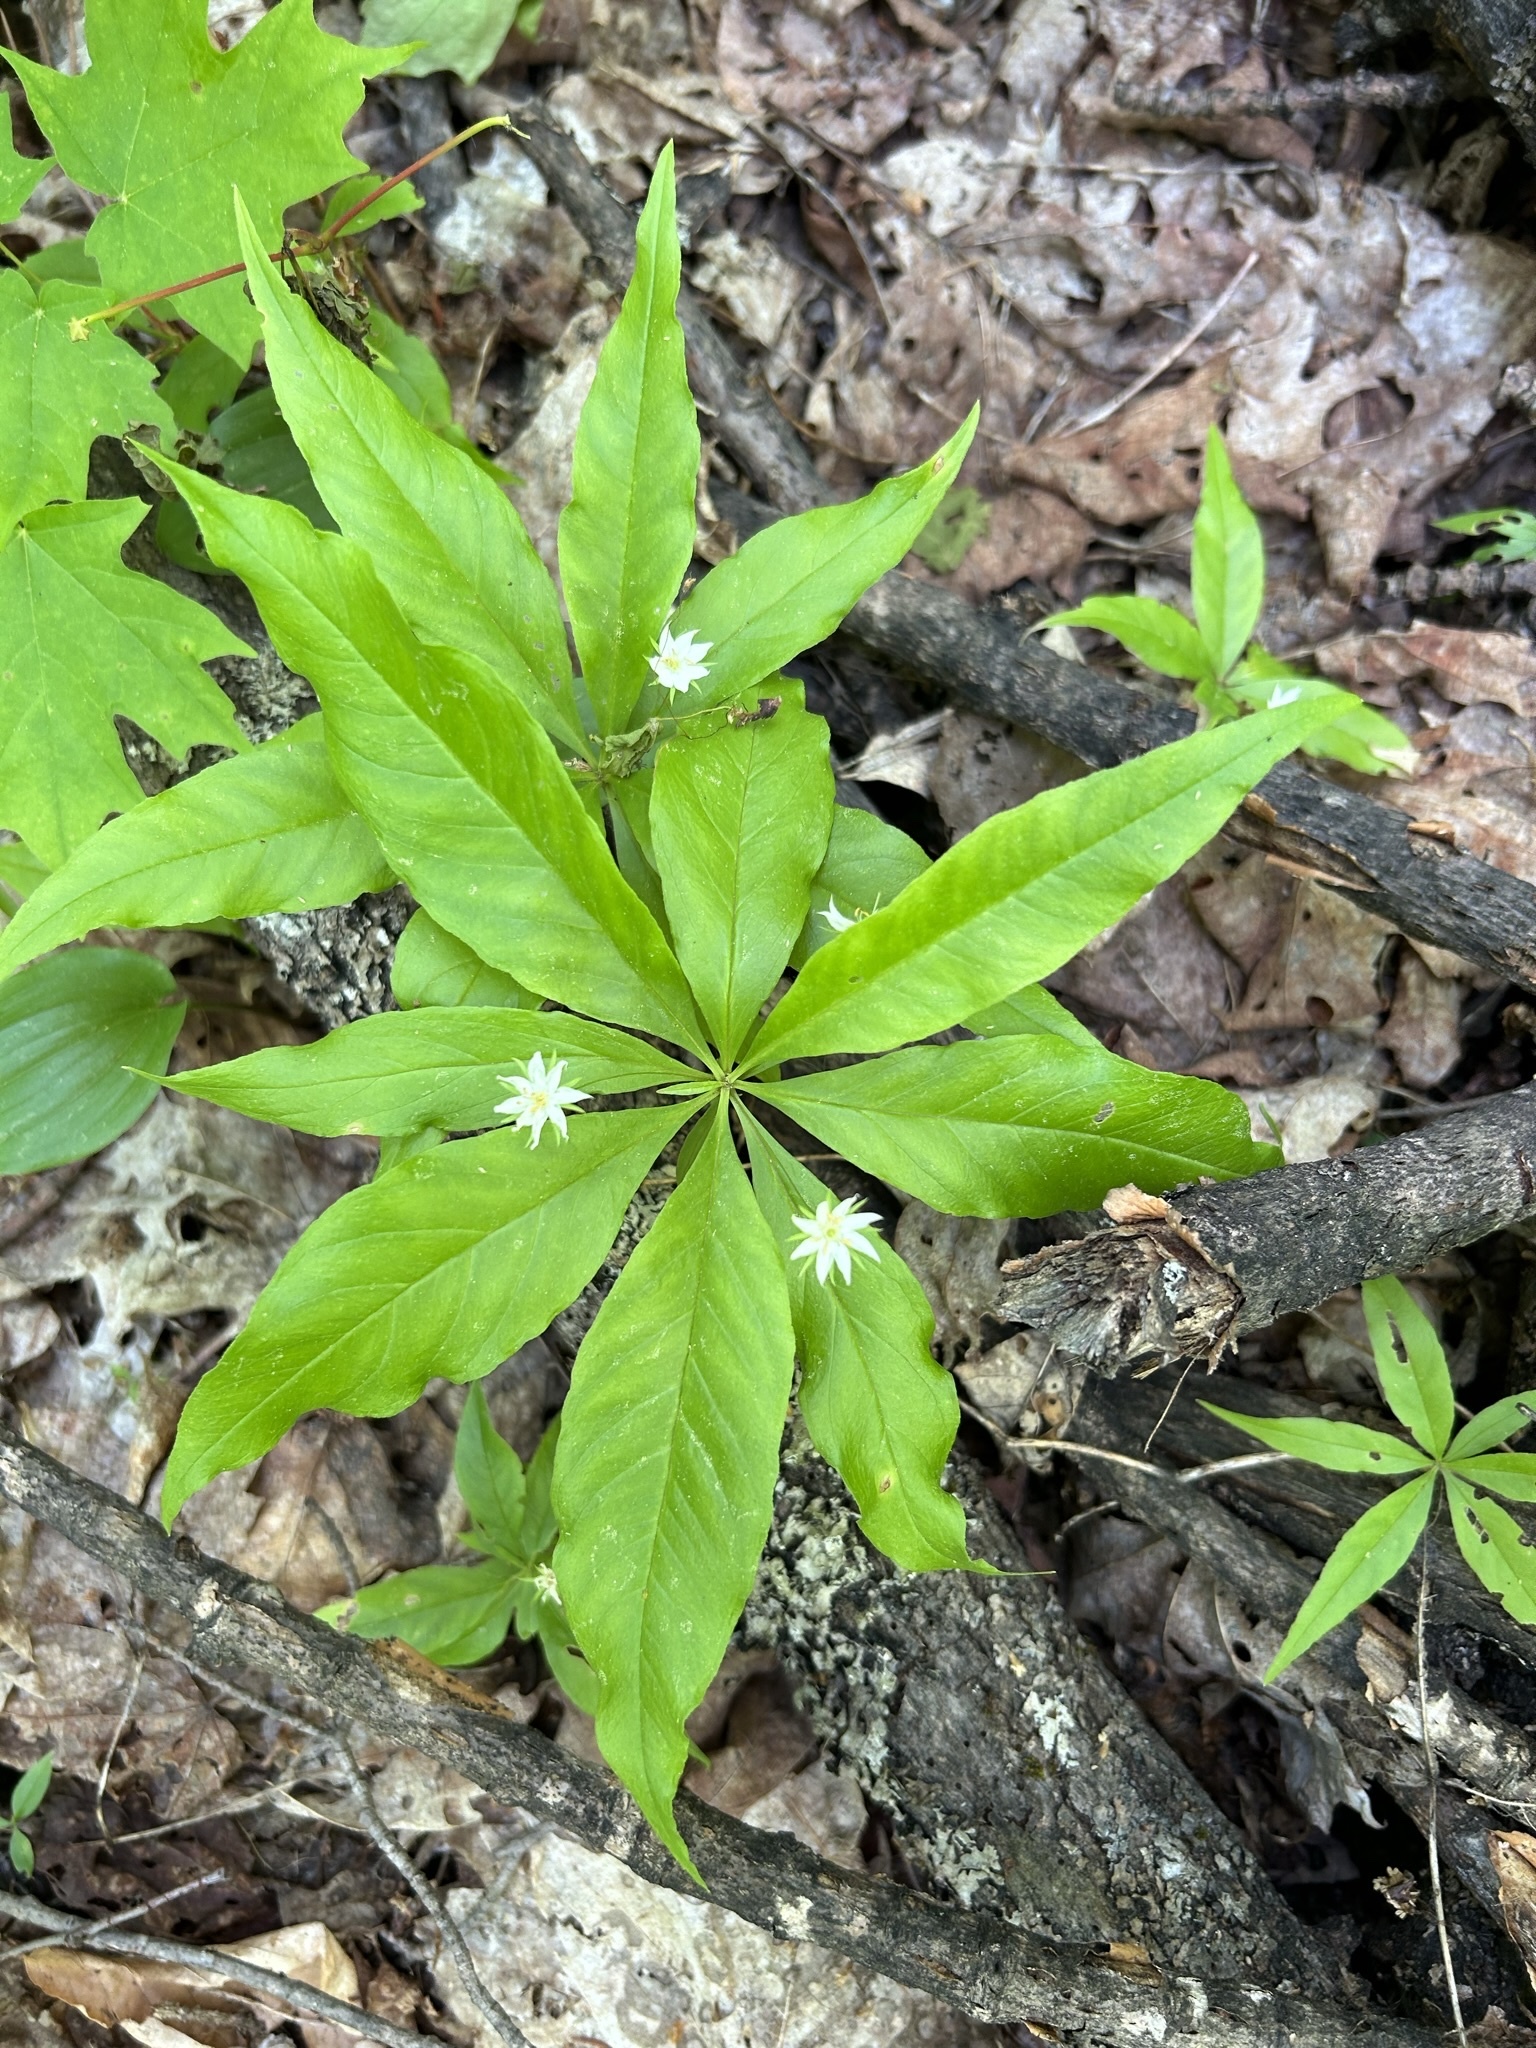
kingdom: Plantae
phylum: Tracheophyta
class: Magnoliopsida
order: Ericales
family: Primulaceae
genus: Lysimachia
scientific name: Lysimachia borealis
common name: American starflower
